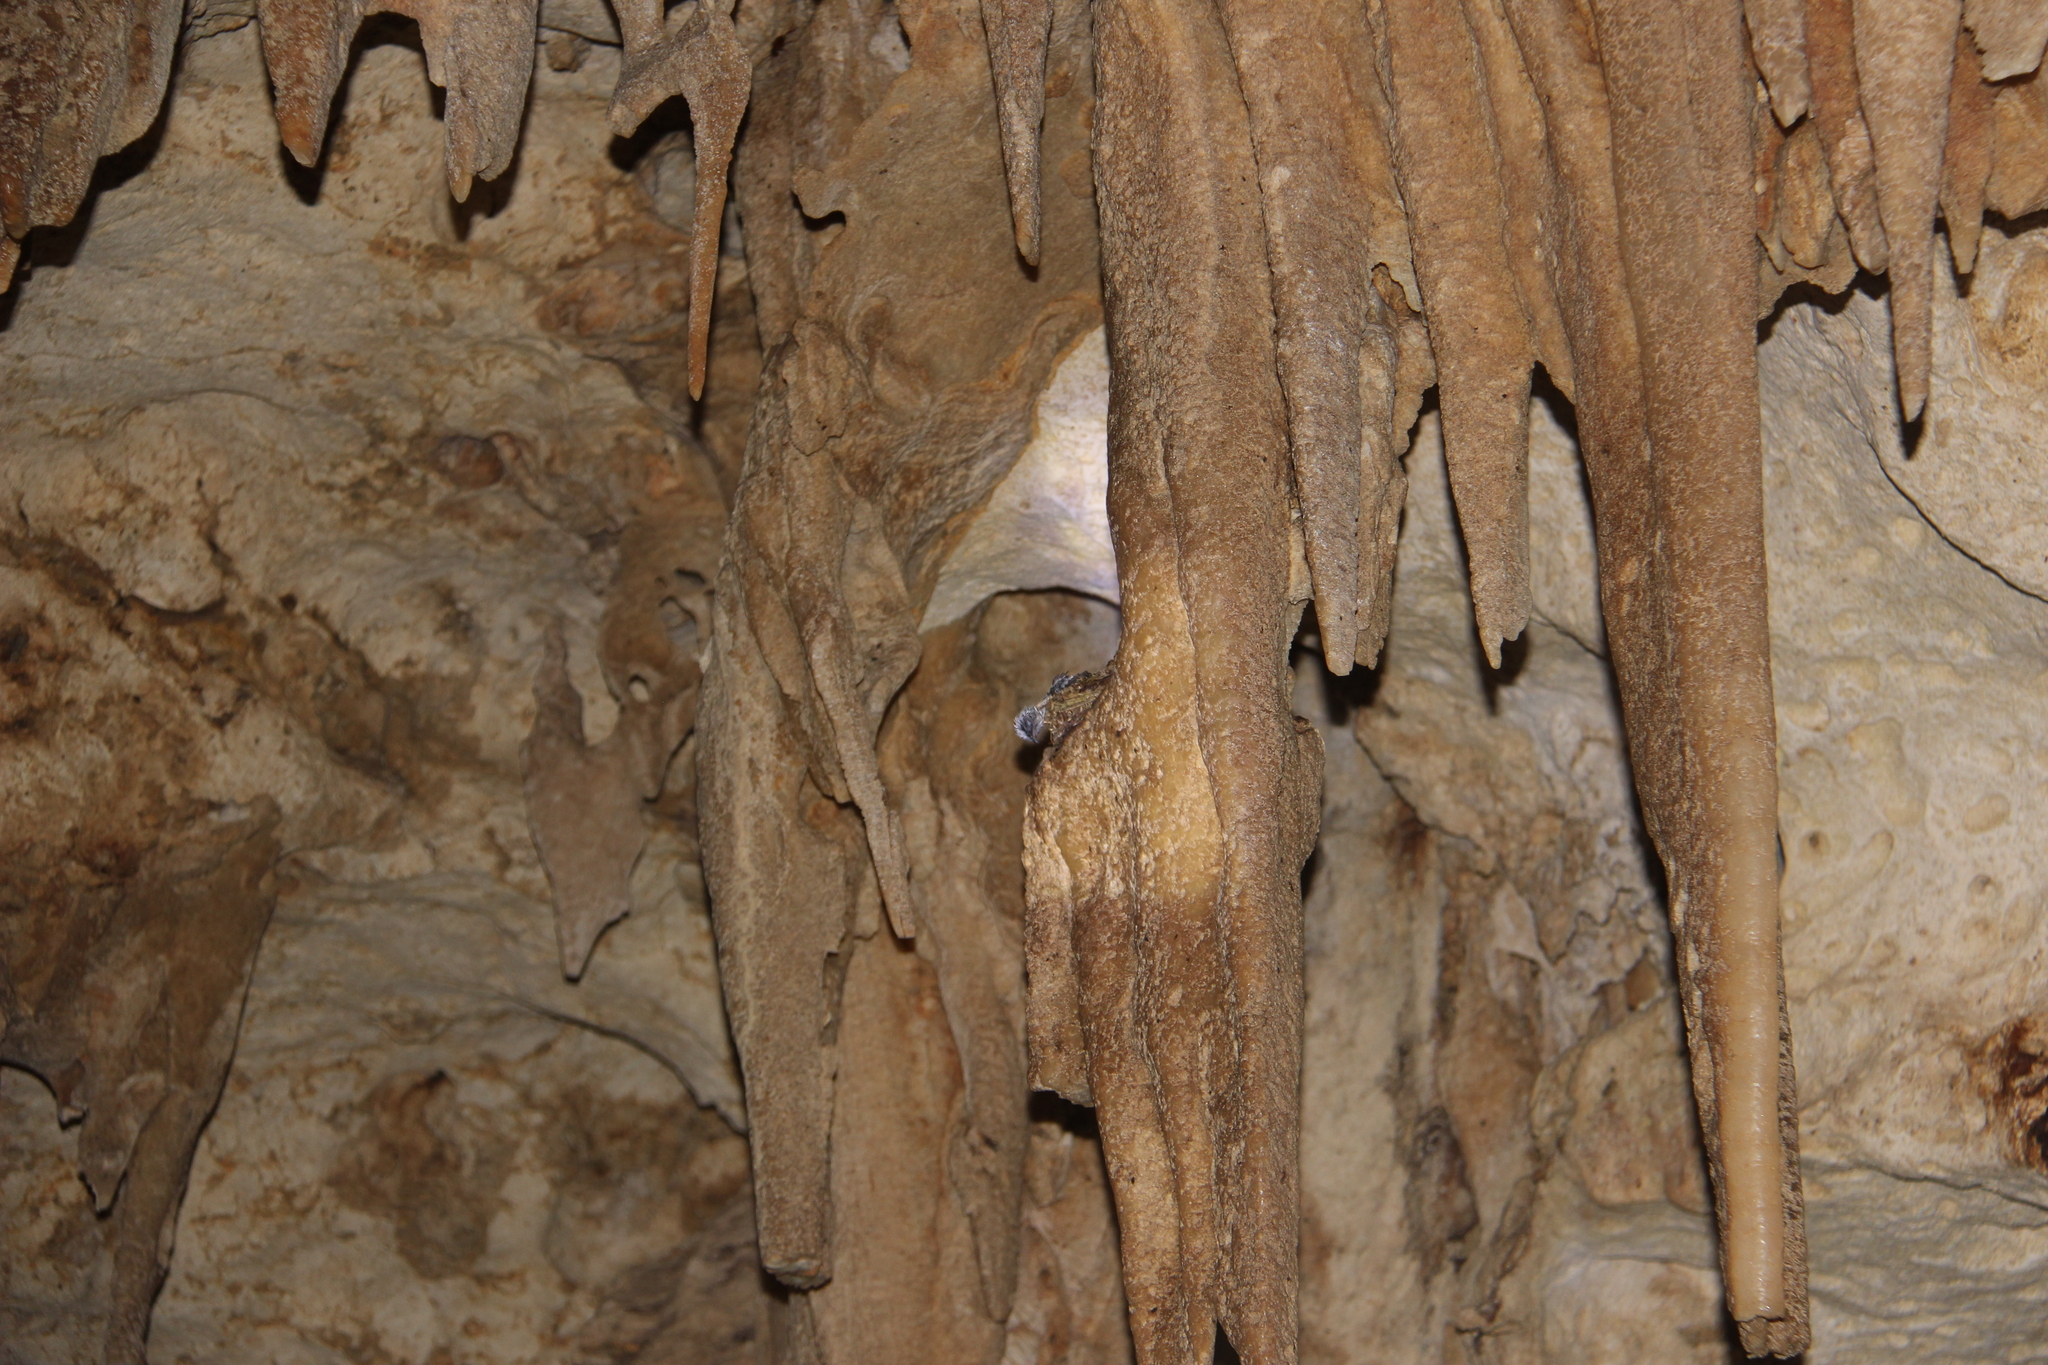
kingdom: Animalia
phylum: Chordata
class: Aves
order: Apodiformes
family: Apodidae
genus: Aerodramus
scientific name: Aerodramus sawtelli
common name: Atiu swiftlet
